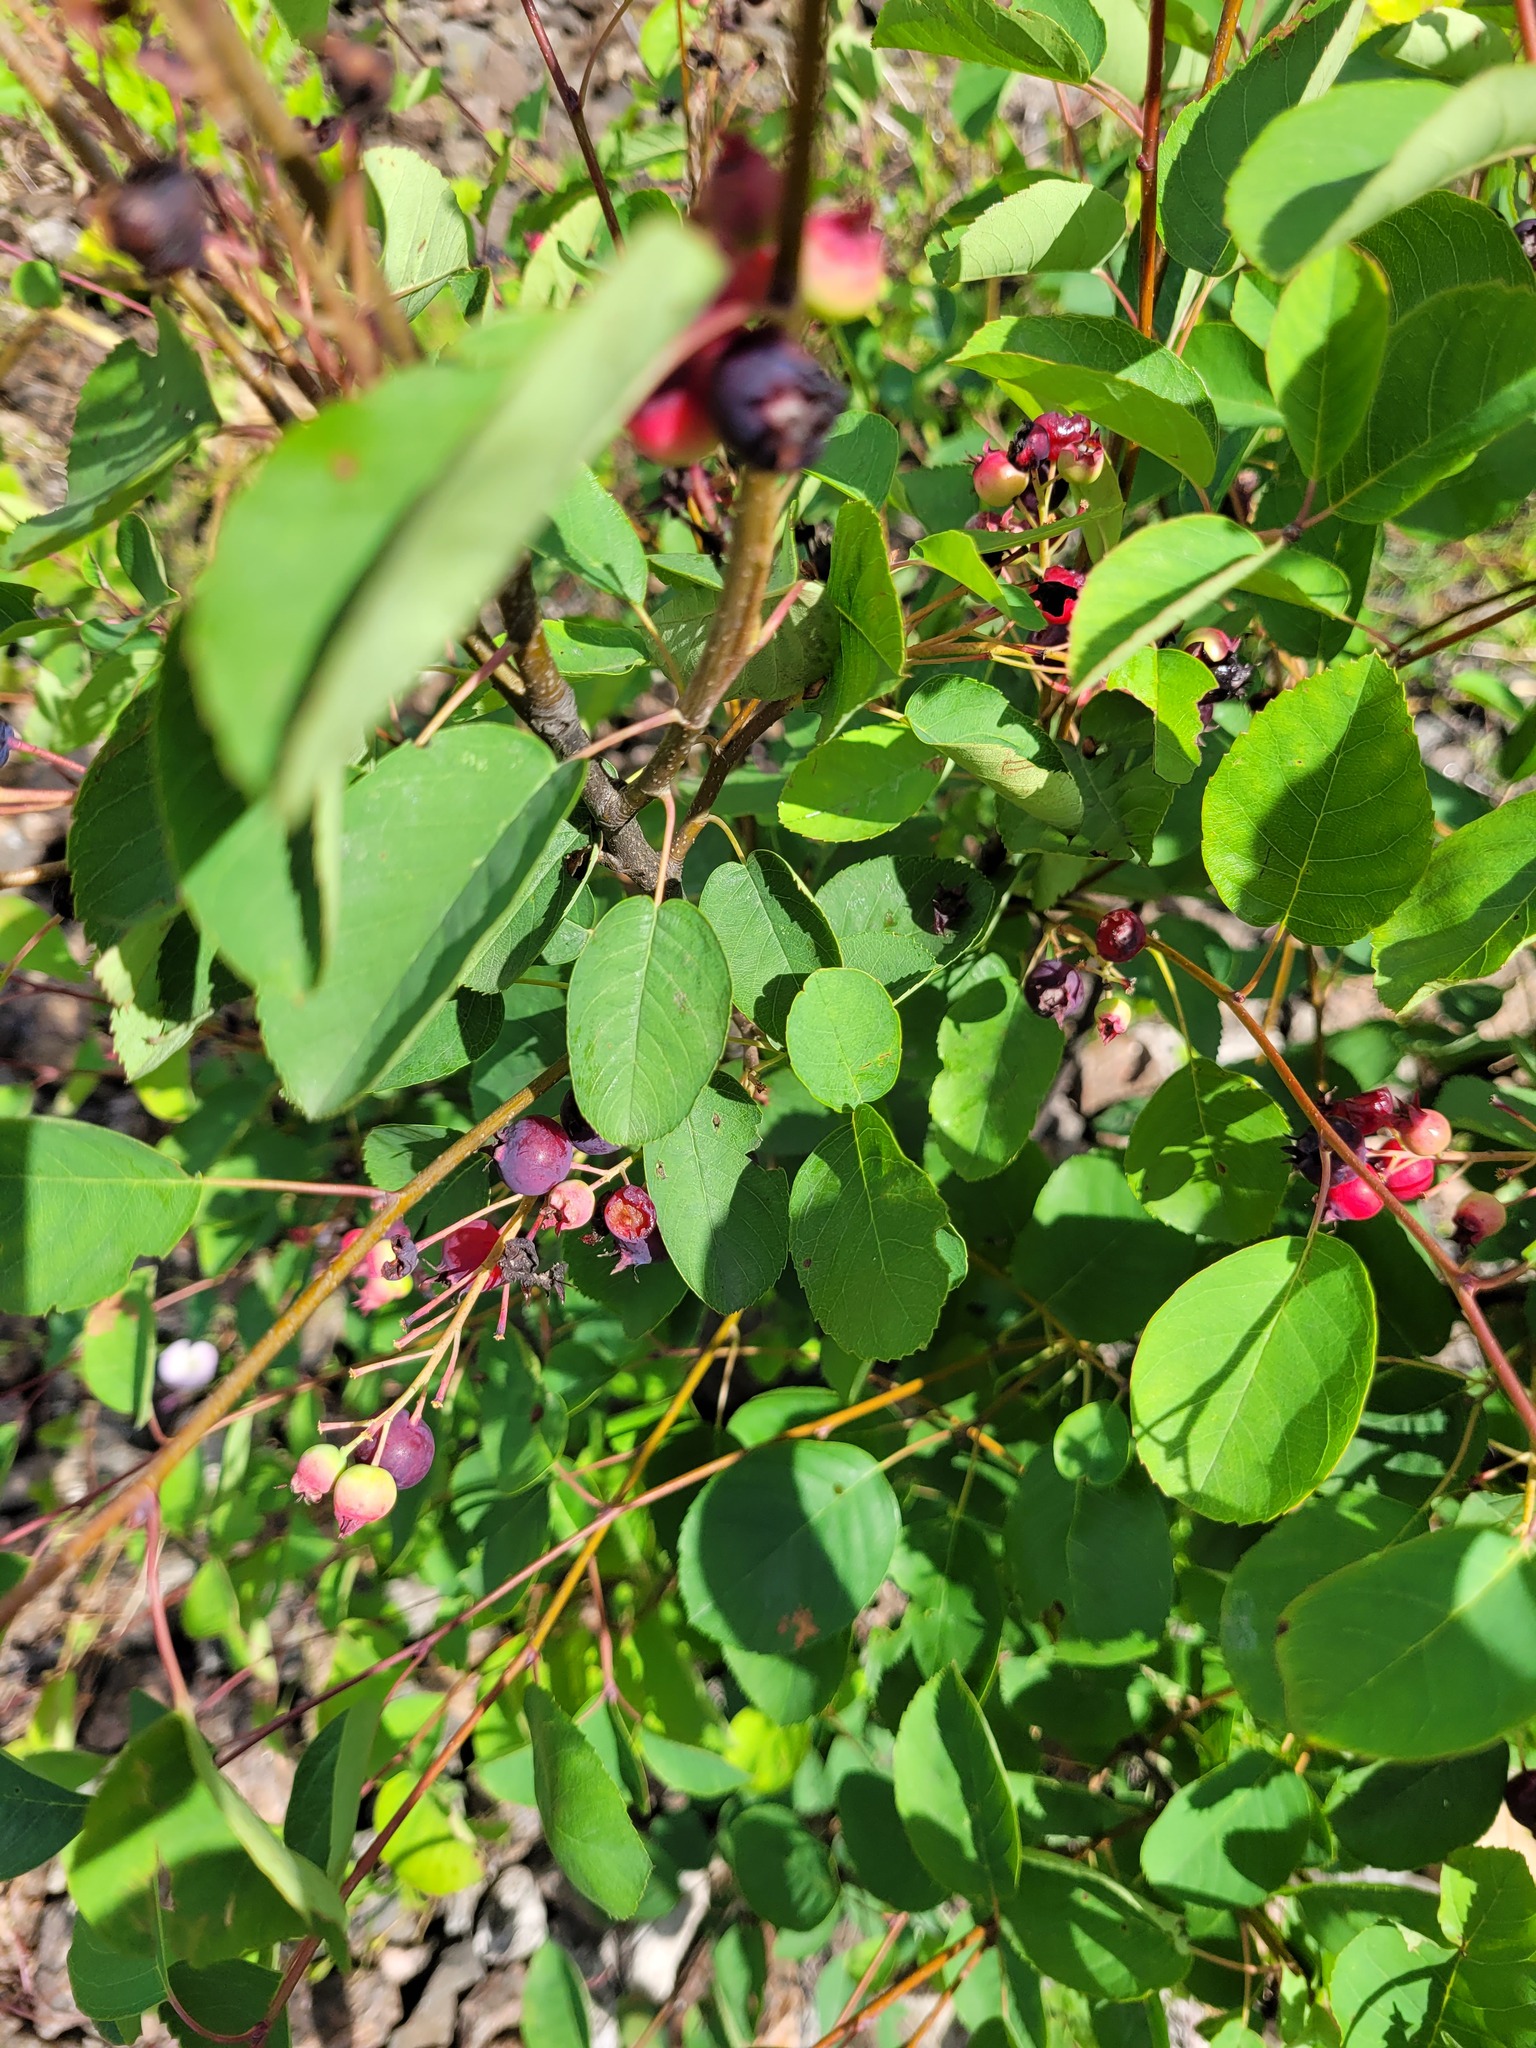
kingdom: Plantae
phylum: Tracheophyta
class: Magnoliopsida
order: Rosales
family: Rosaceae
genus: Amelanchier
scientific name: Amelanchier
